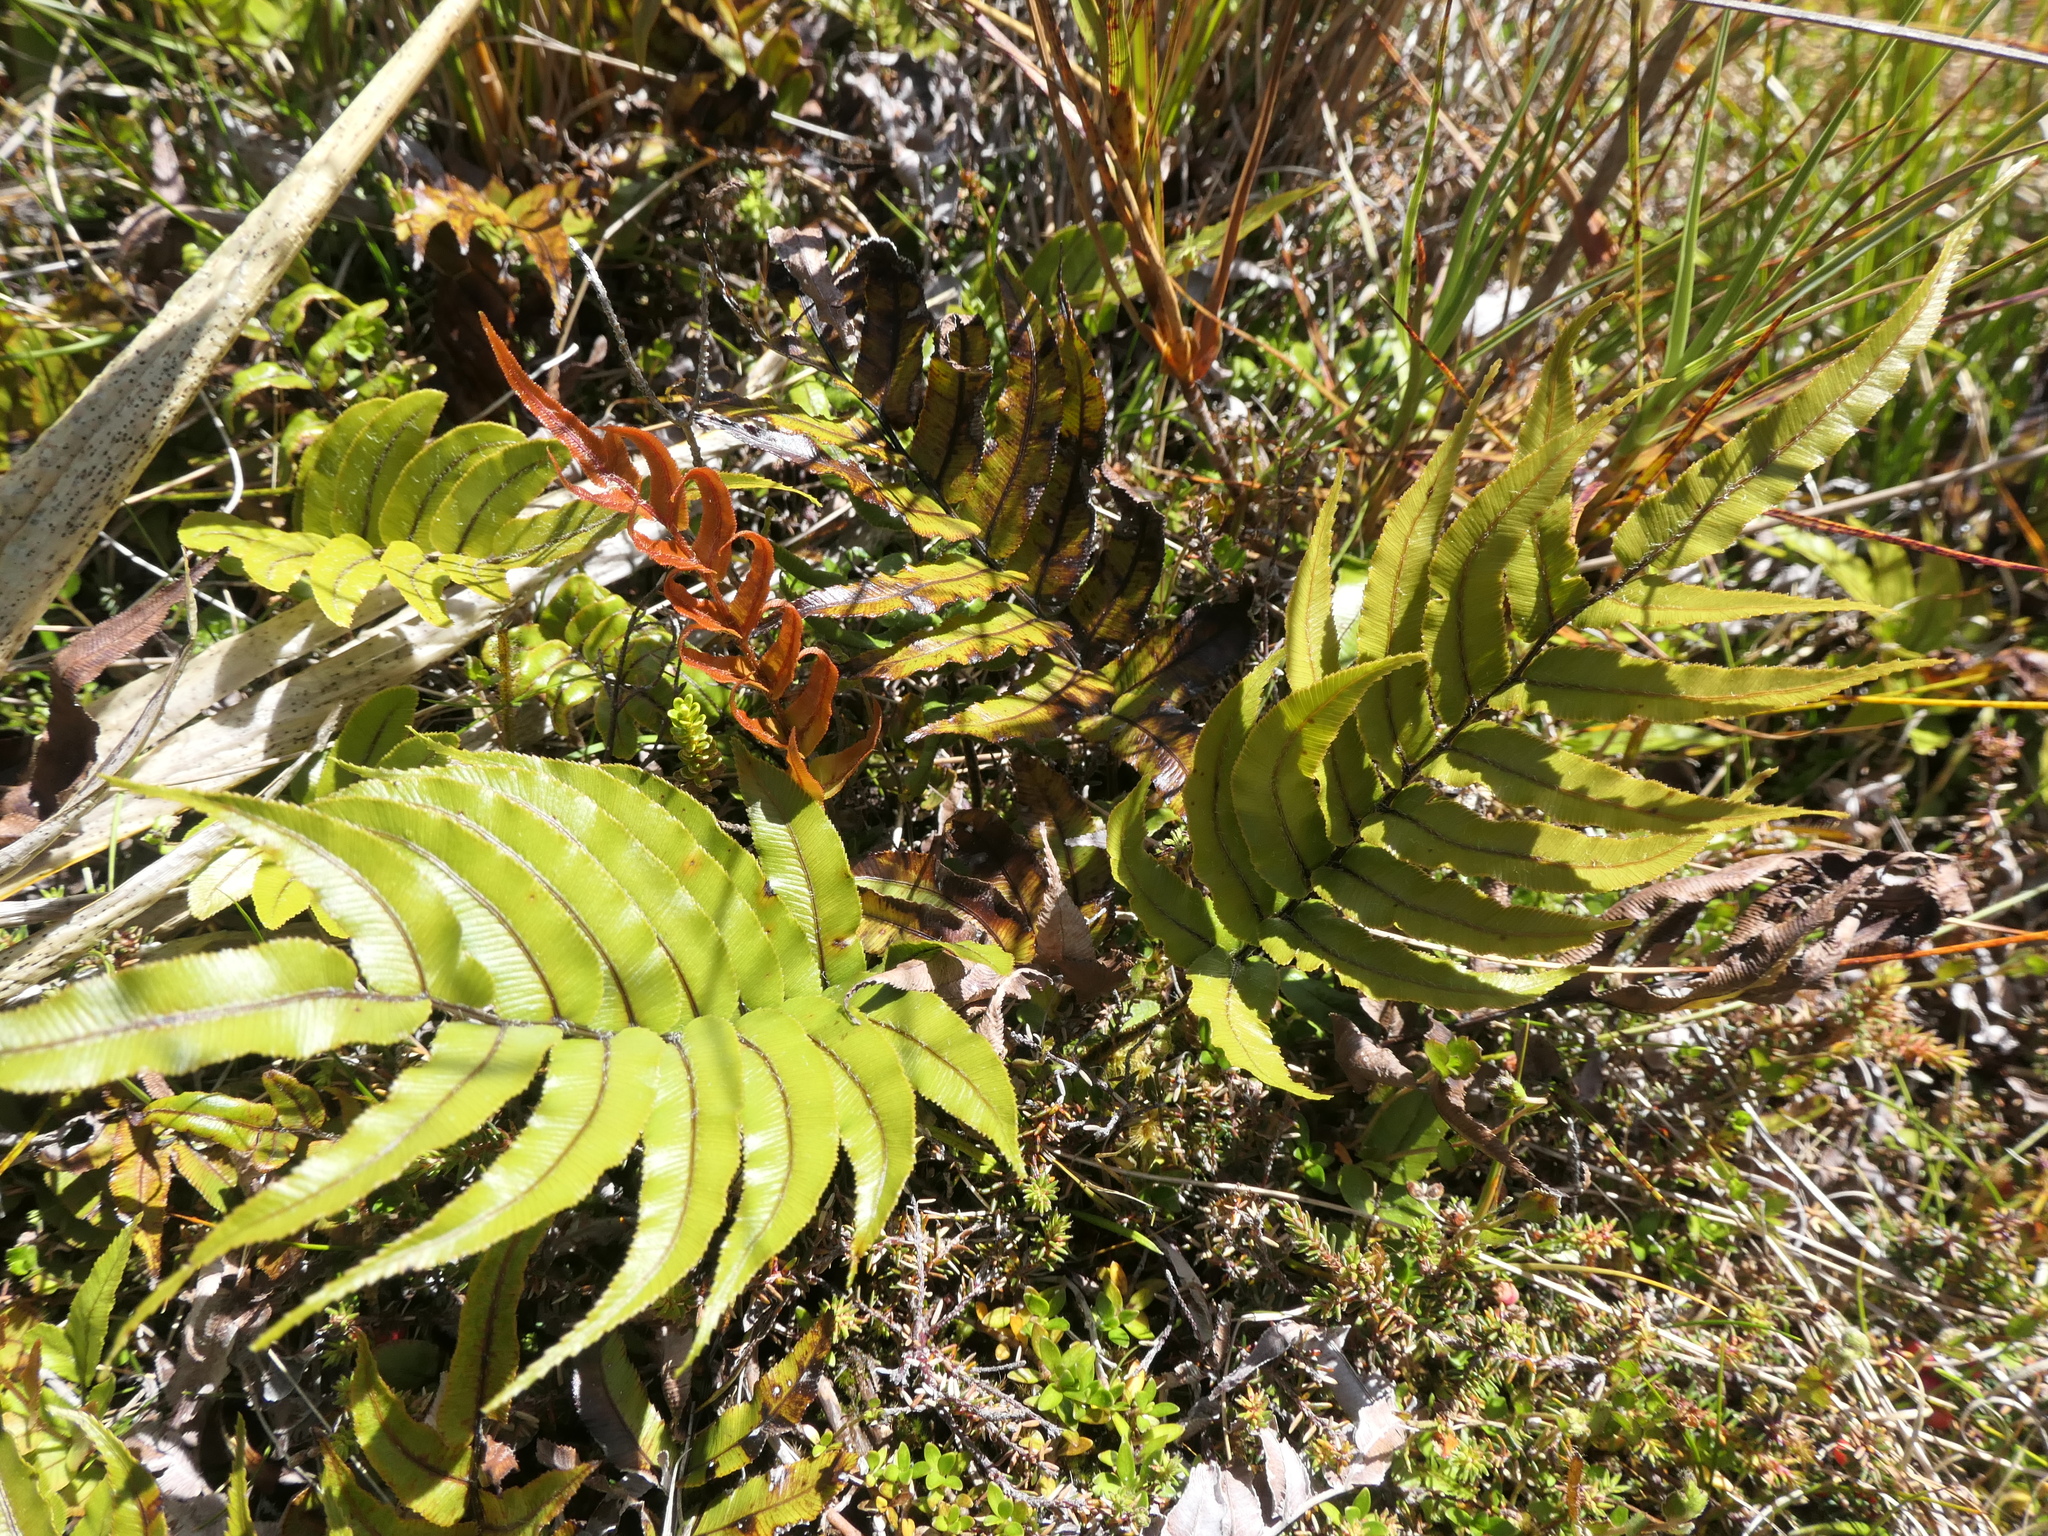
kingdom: Plantae
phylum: Tracheophyta
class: Polypodiopsida
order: Polypodiales
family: Blechnaceae
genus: Parablechnum
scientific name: Parablechnum montanum
